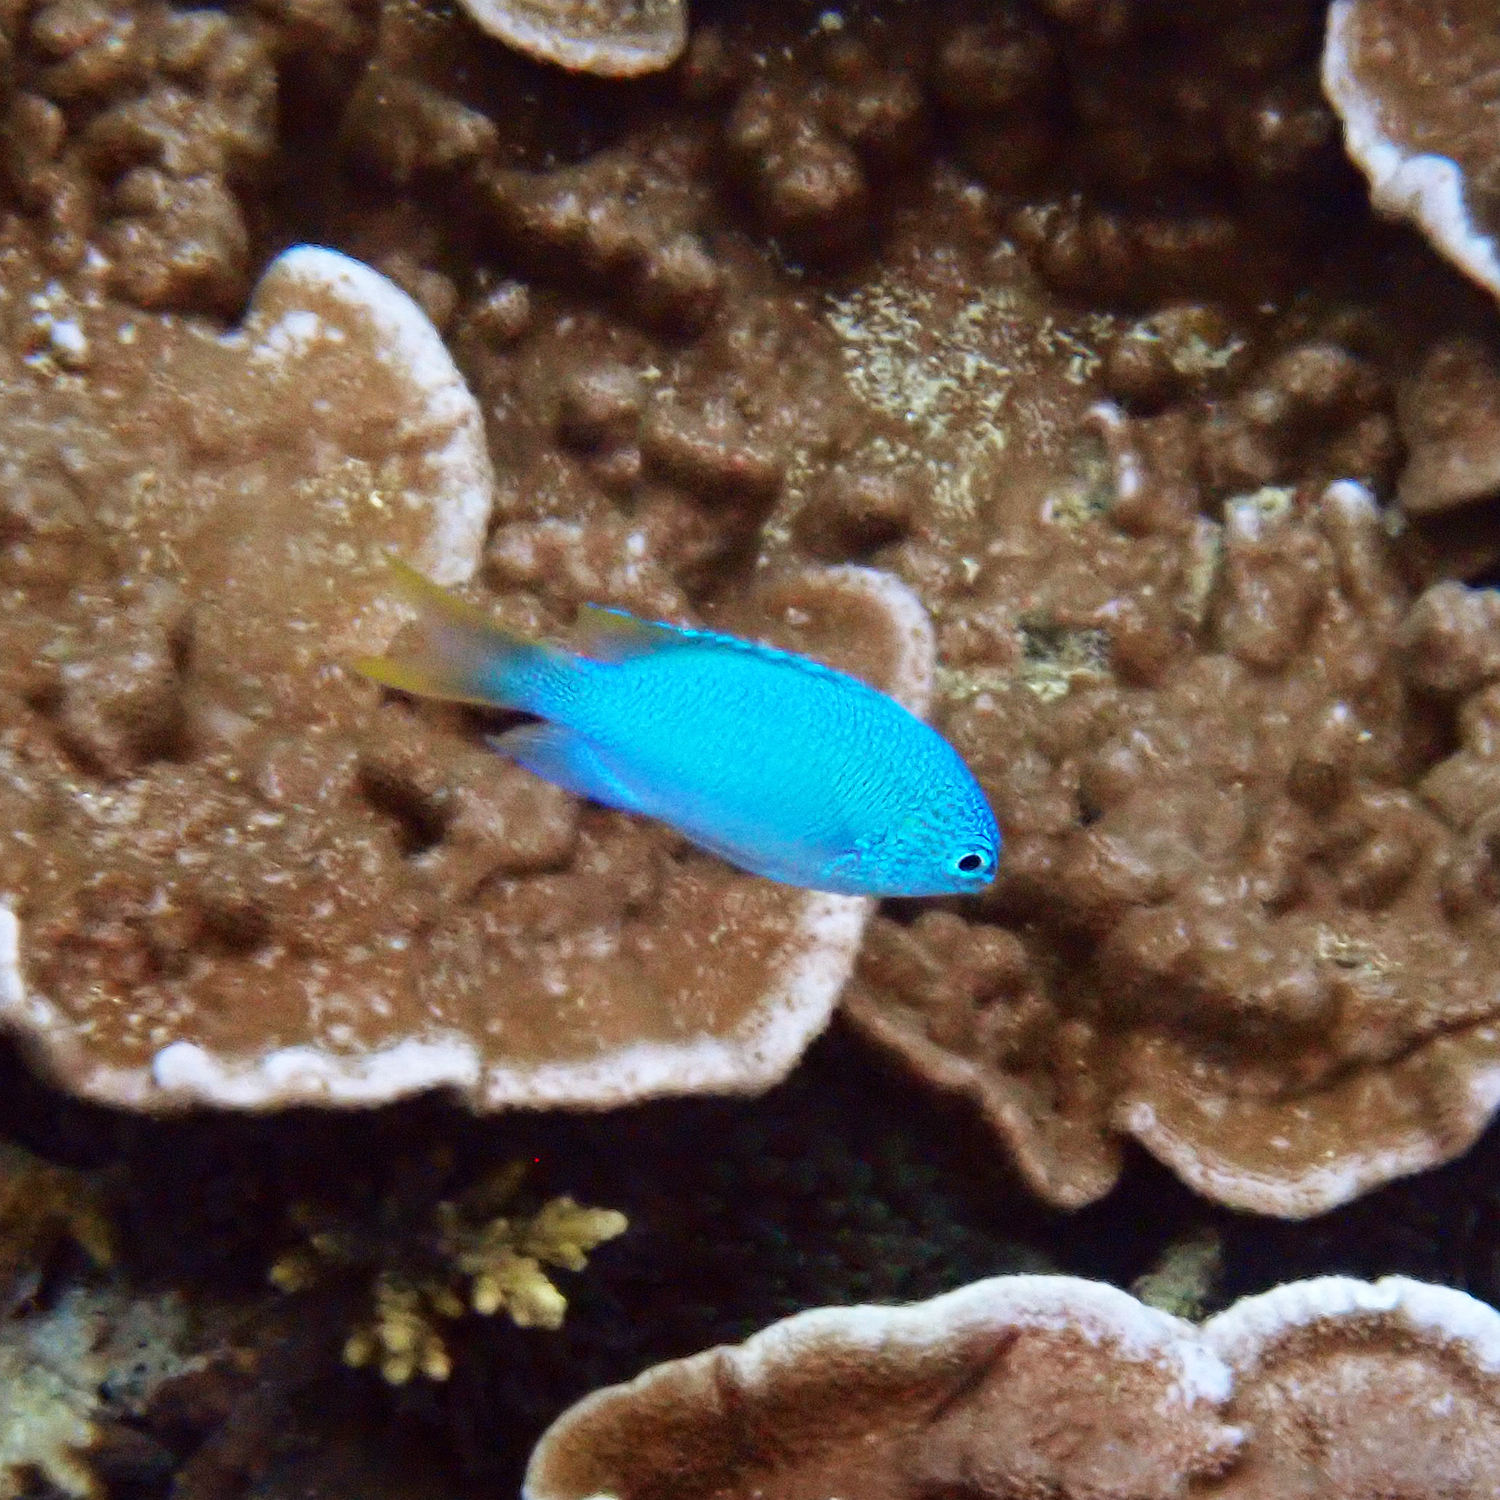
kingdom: Animalia
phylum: Chordata
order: Perciformes
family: Pomacentridae
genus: Pomacentrus
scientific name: Pomacentrus pavo
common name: Sapphire damsel
